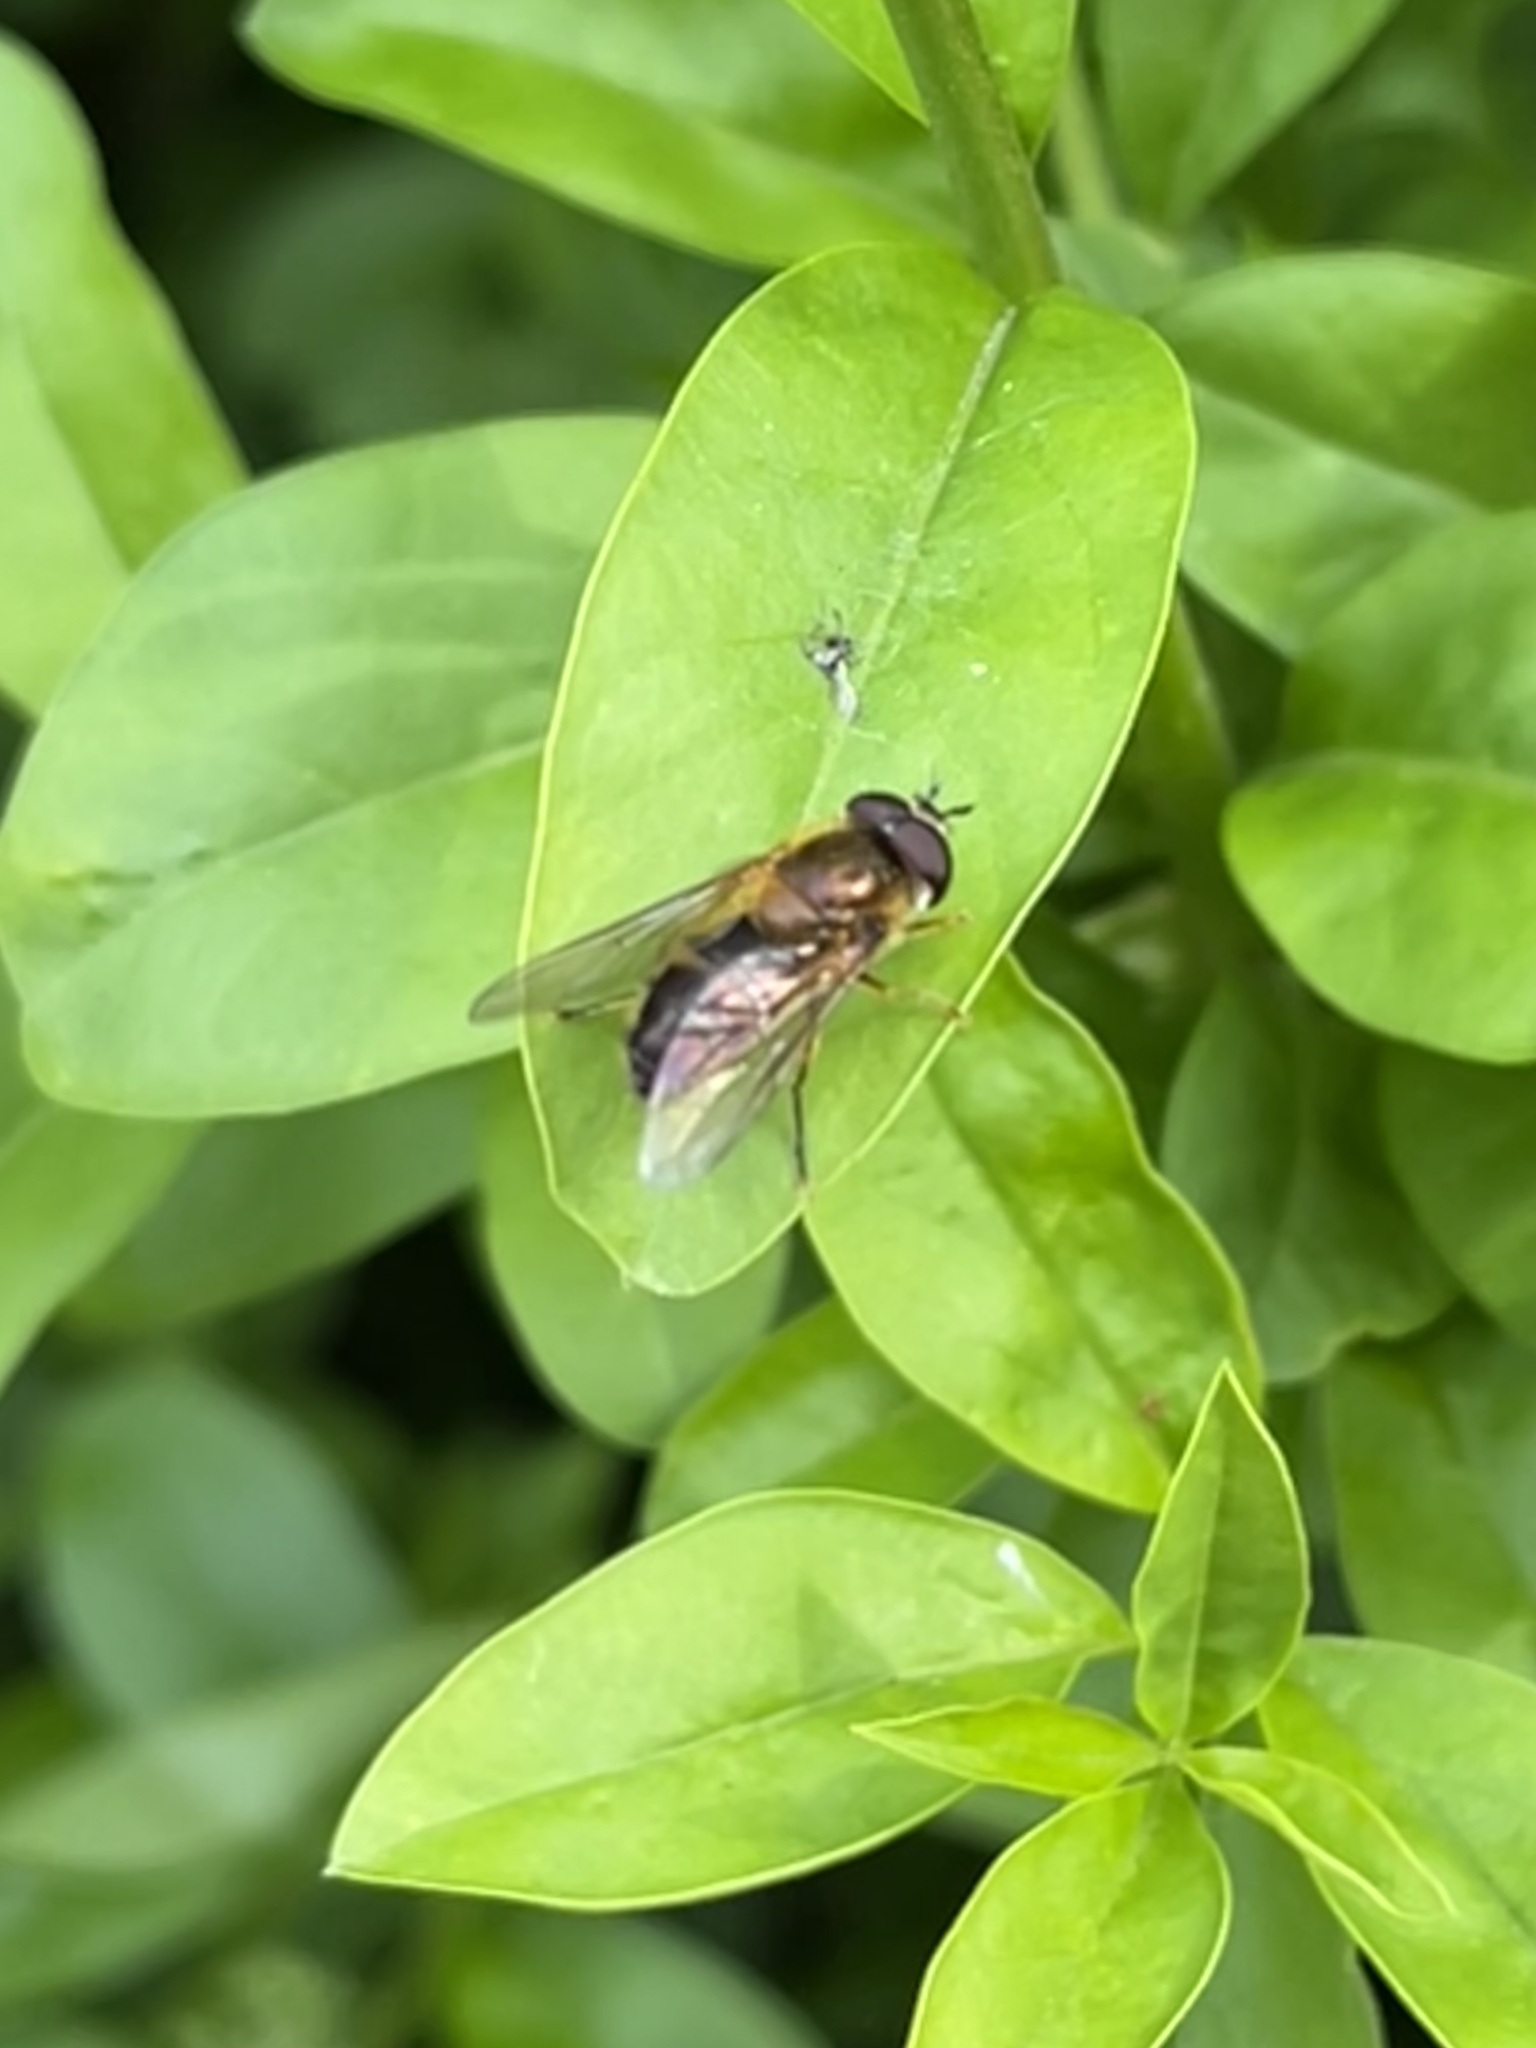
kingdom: Animalia
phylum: Arthropoda
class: Insecta
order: Diptera
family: Syrphidae
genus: Epistrophe
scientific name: Epistrophe eligans
